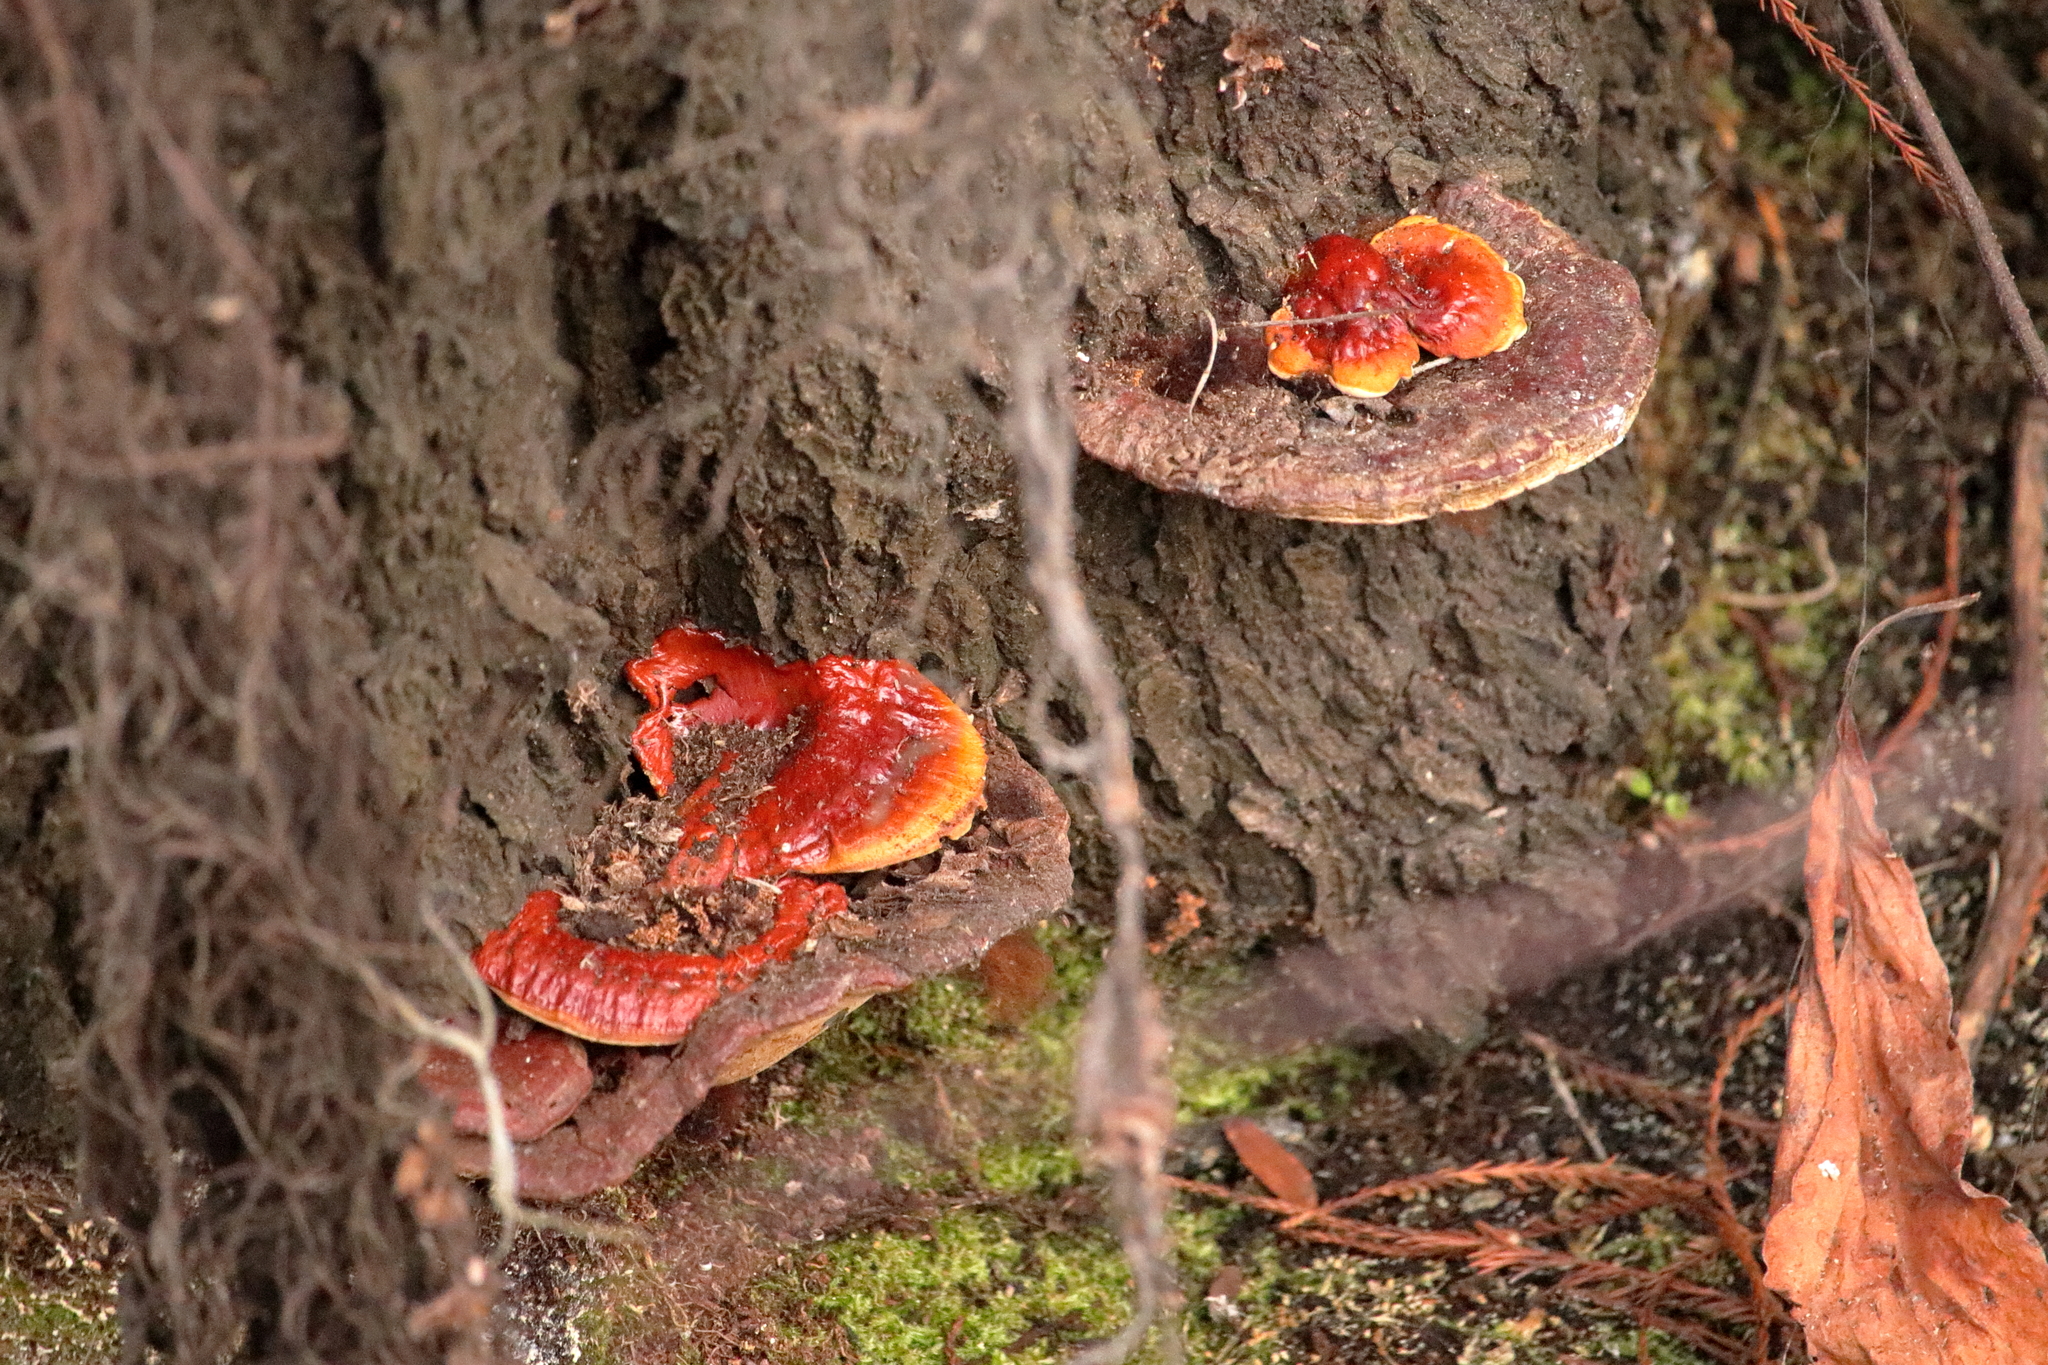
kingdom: Fungi
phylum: Basidiomycota
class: Agaricomycetes
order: Polyporales
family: Polyporaceae
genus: Ganoderma
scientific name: Ganoderma resinaceum
